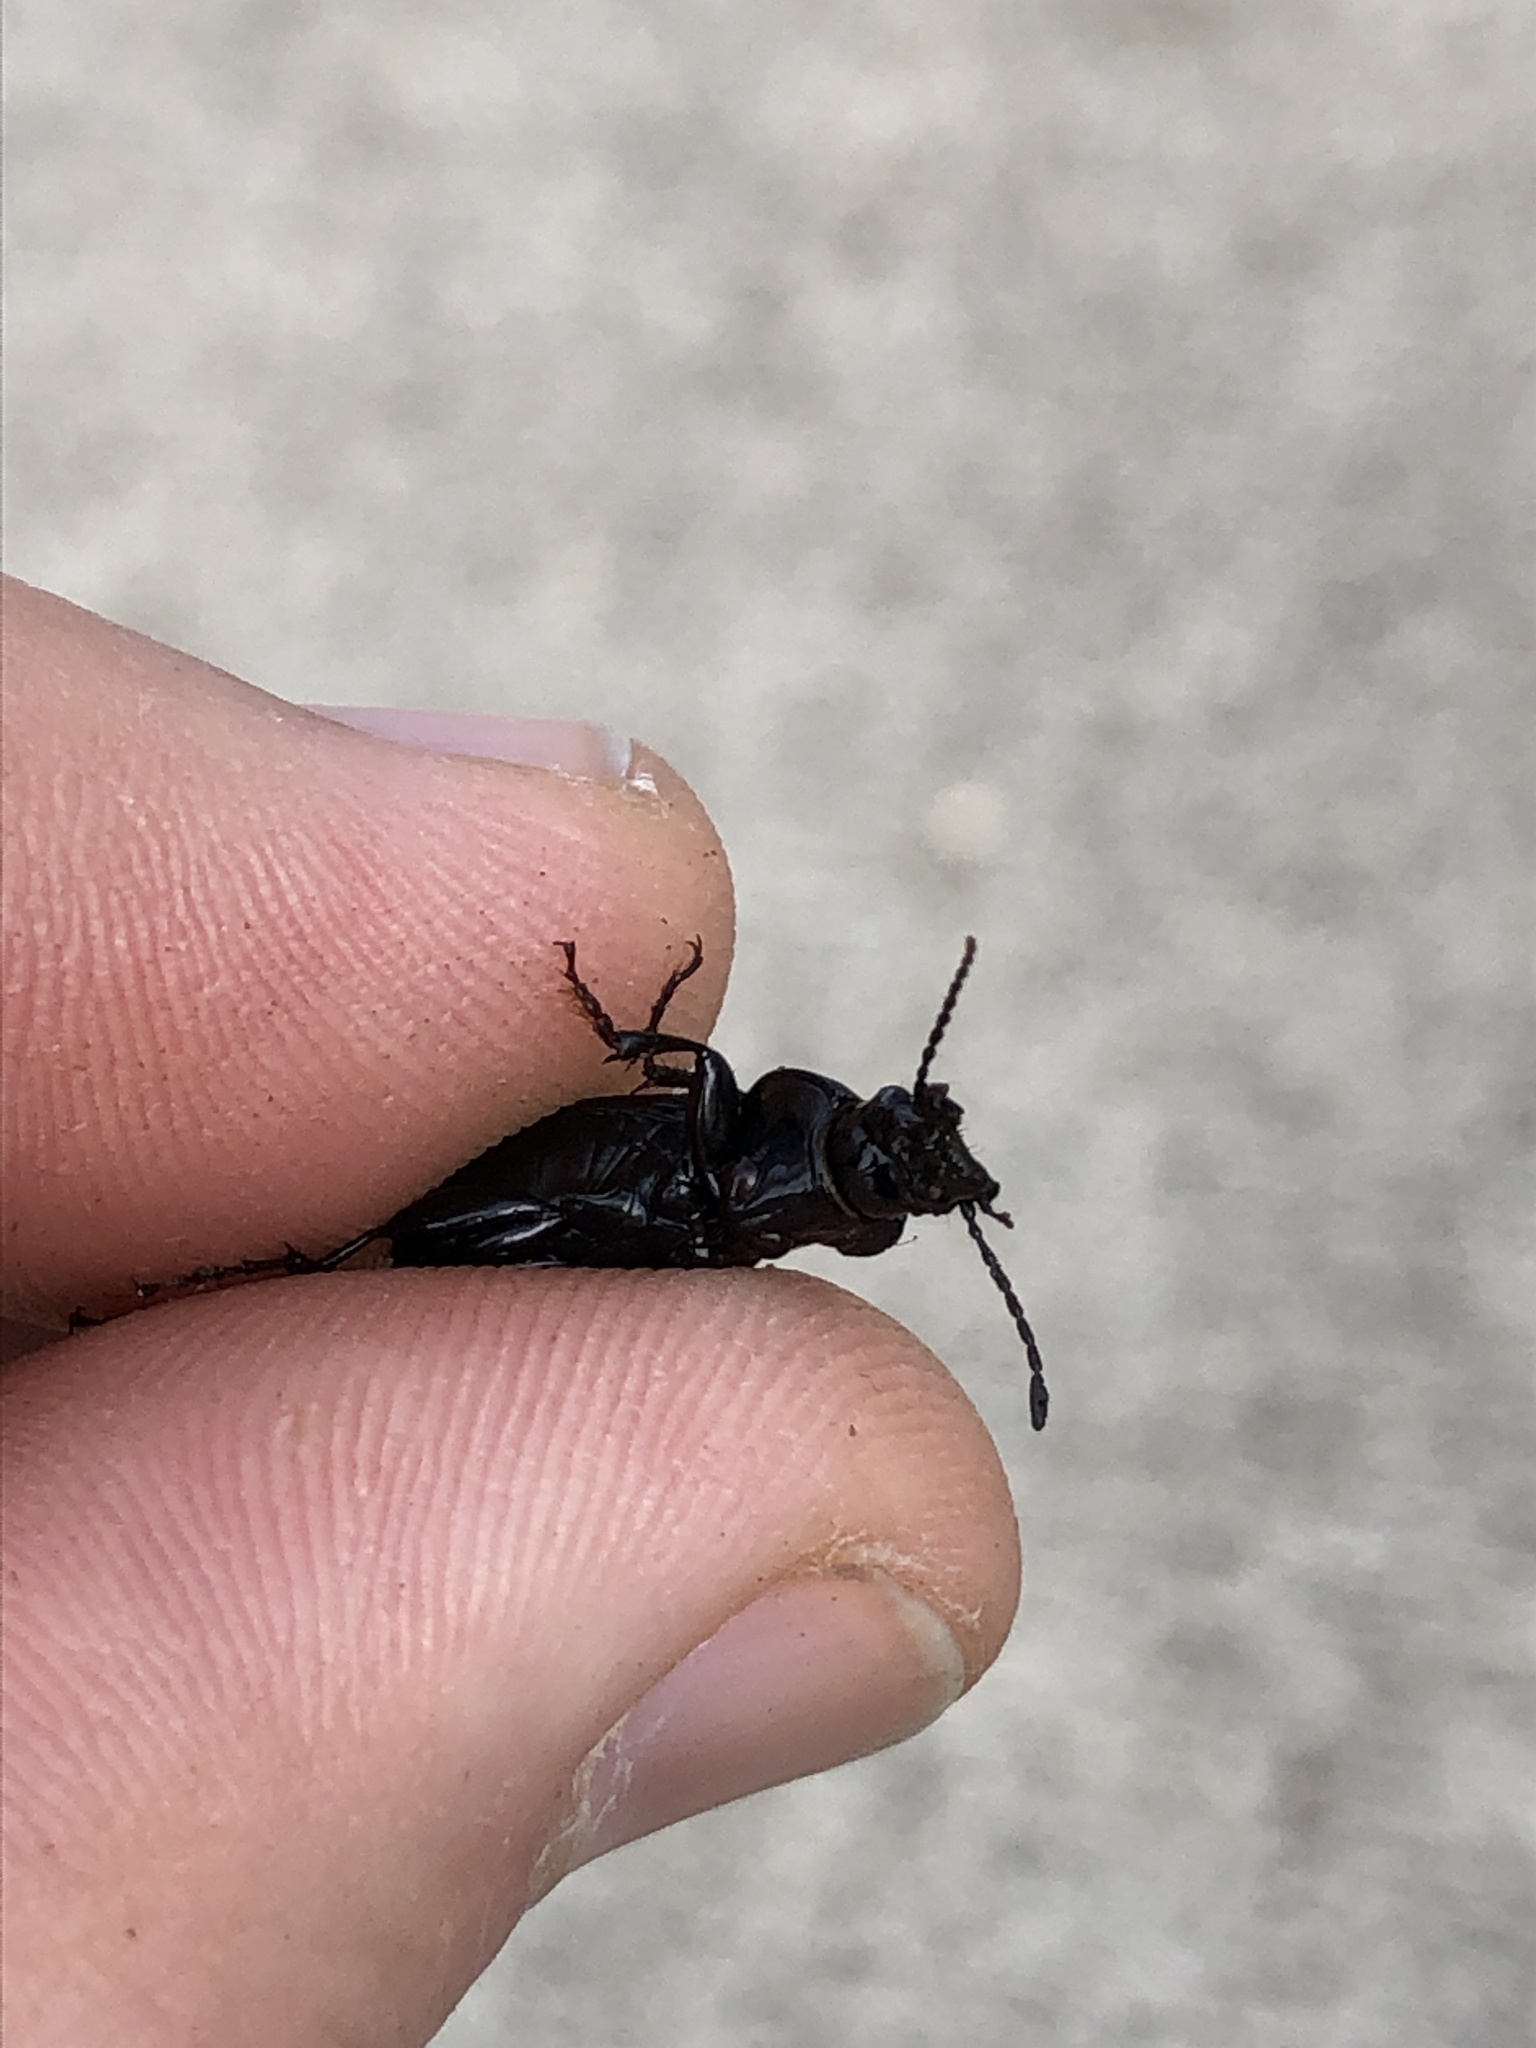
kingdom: Animalia
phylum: Arthropoda
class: Insecta
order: Coleoptera
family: Carabidae
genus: Cyclotrachelus
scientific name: Cyclotrachelus
